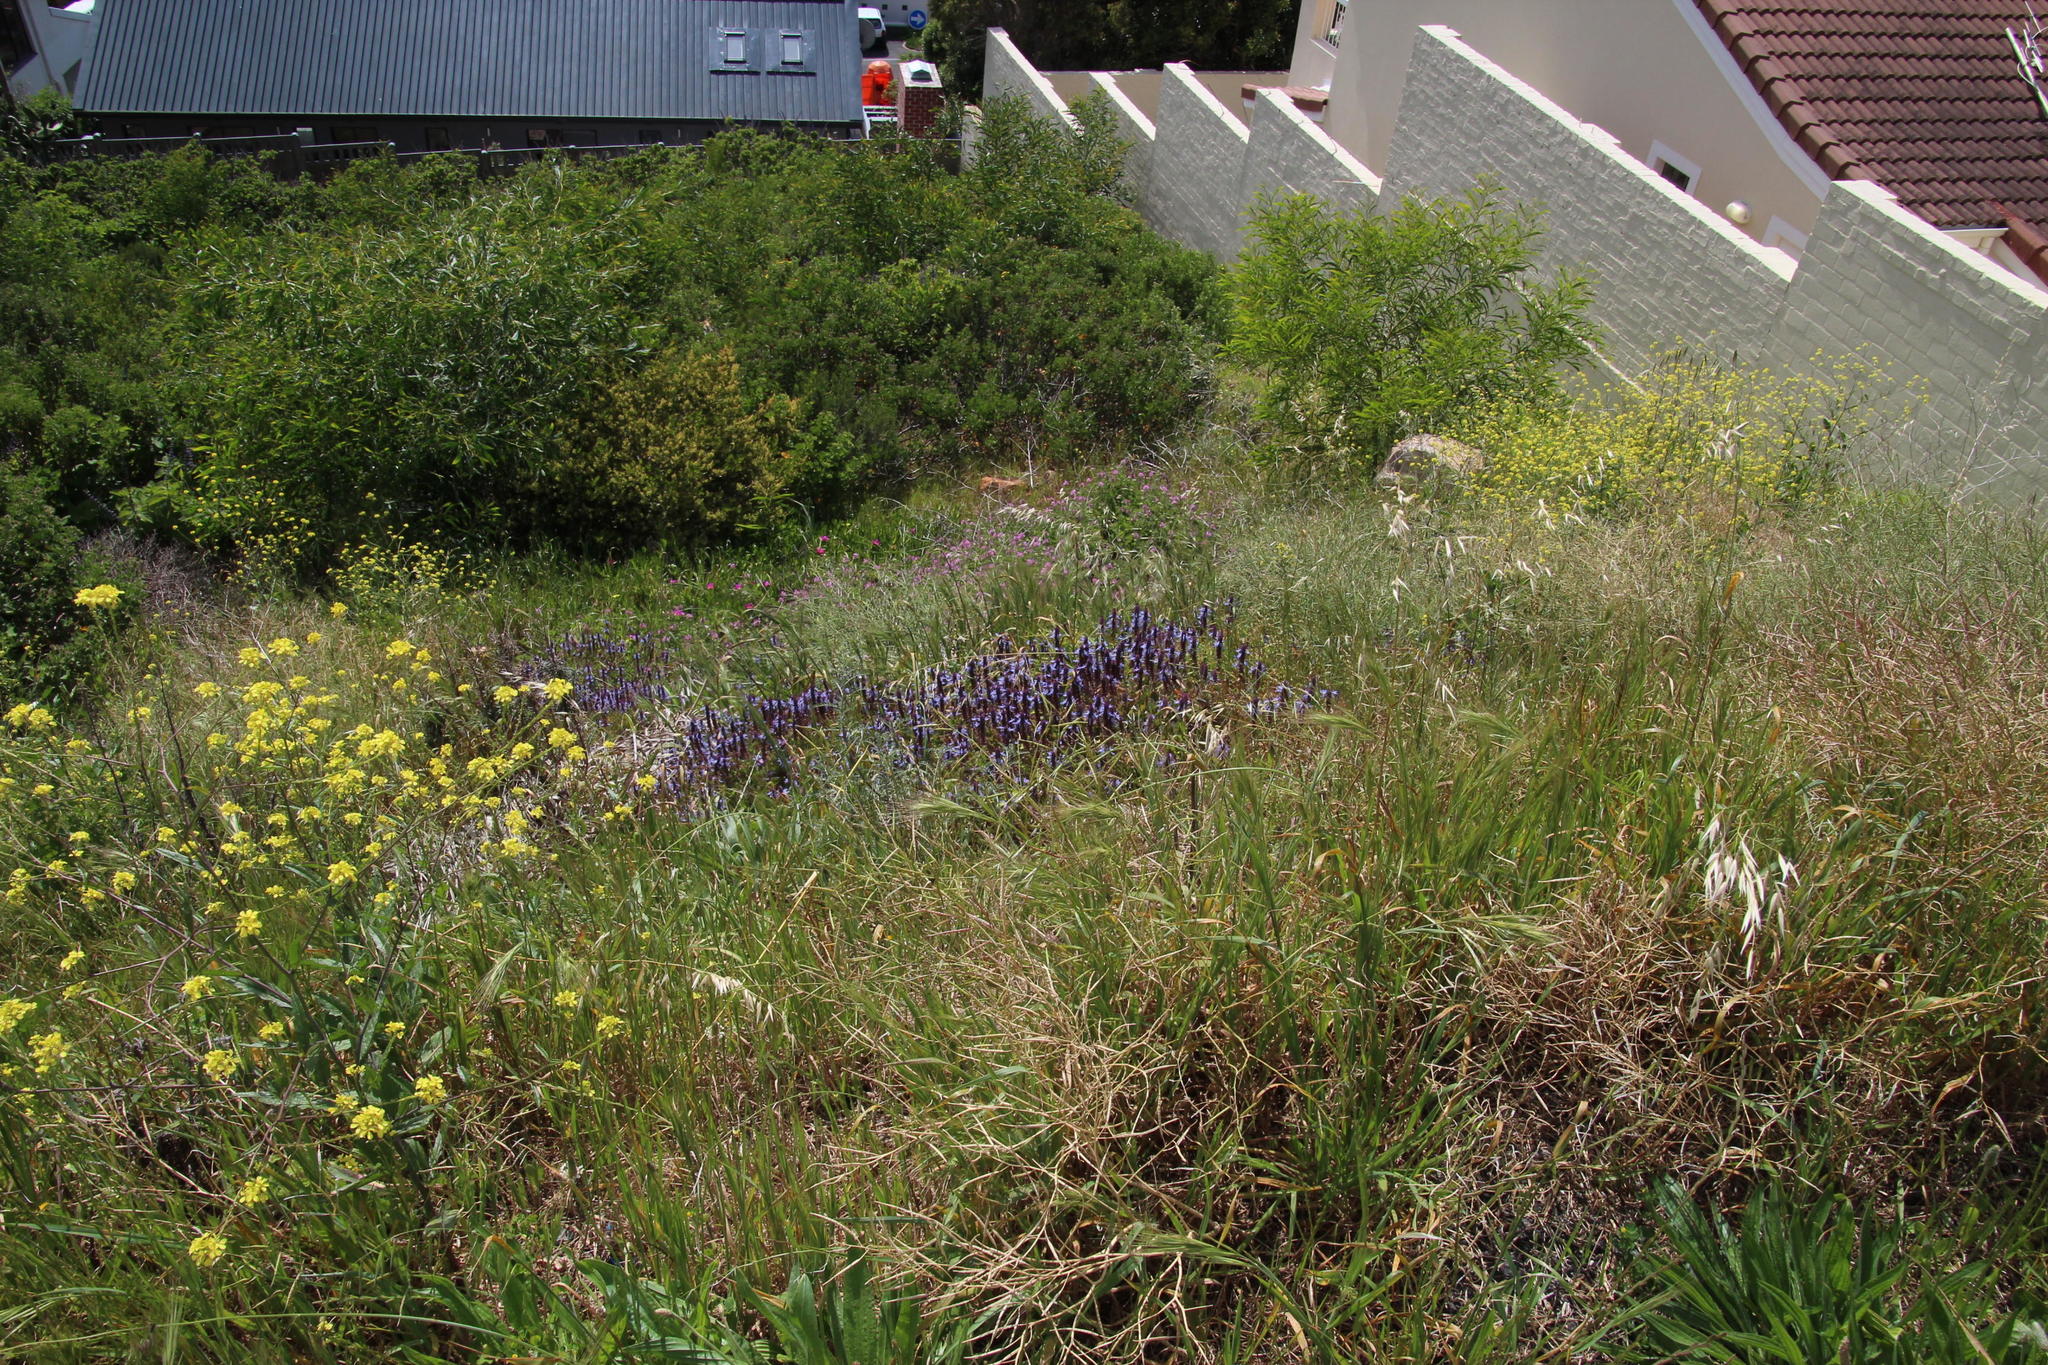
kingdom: Plantae
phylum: Tracheophyta
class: Magnoliopsida
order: Lamiales
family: Lamiaceae
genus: Coleus
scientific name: Coleus neochilus
